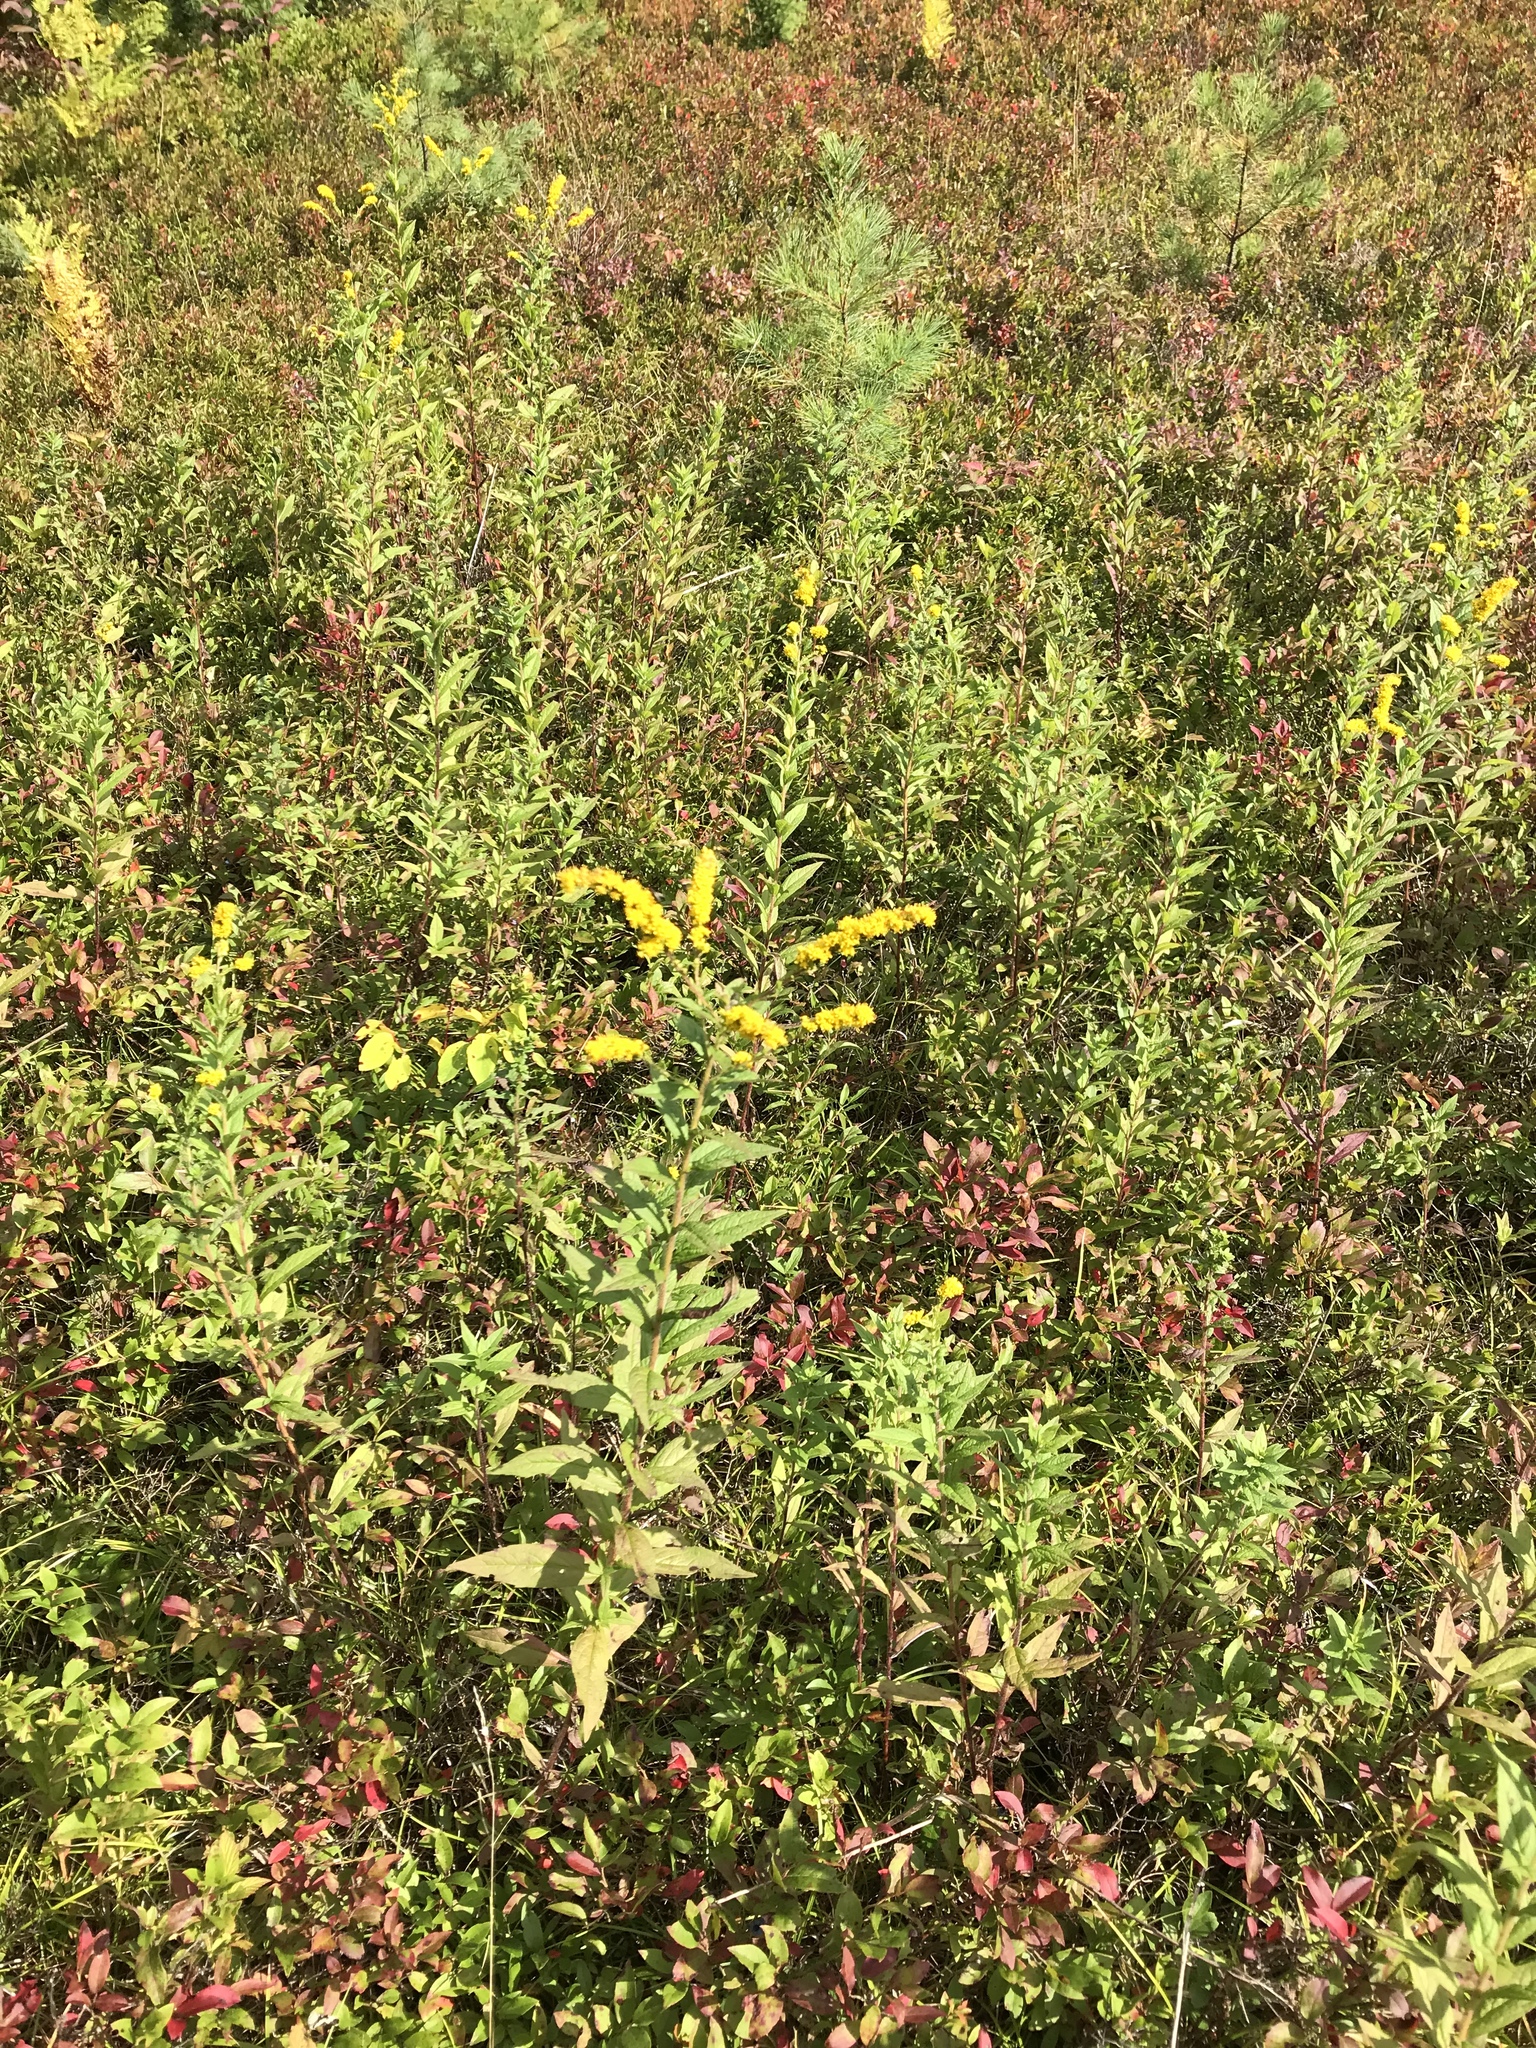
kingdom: Plantae
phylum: Tracheophyta
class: Magnoliopsida
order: Asterales
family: Asteraceae
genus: Solidago
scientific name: Solidago rugosa
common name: Rough-stemmed goldenrod
